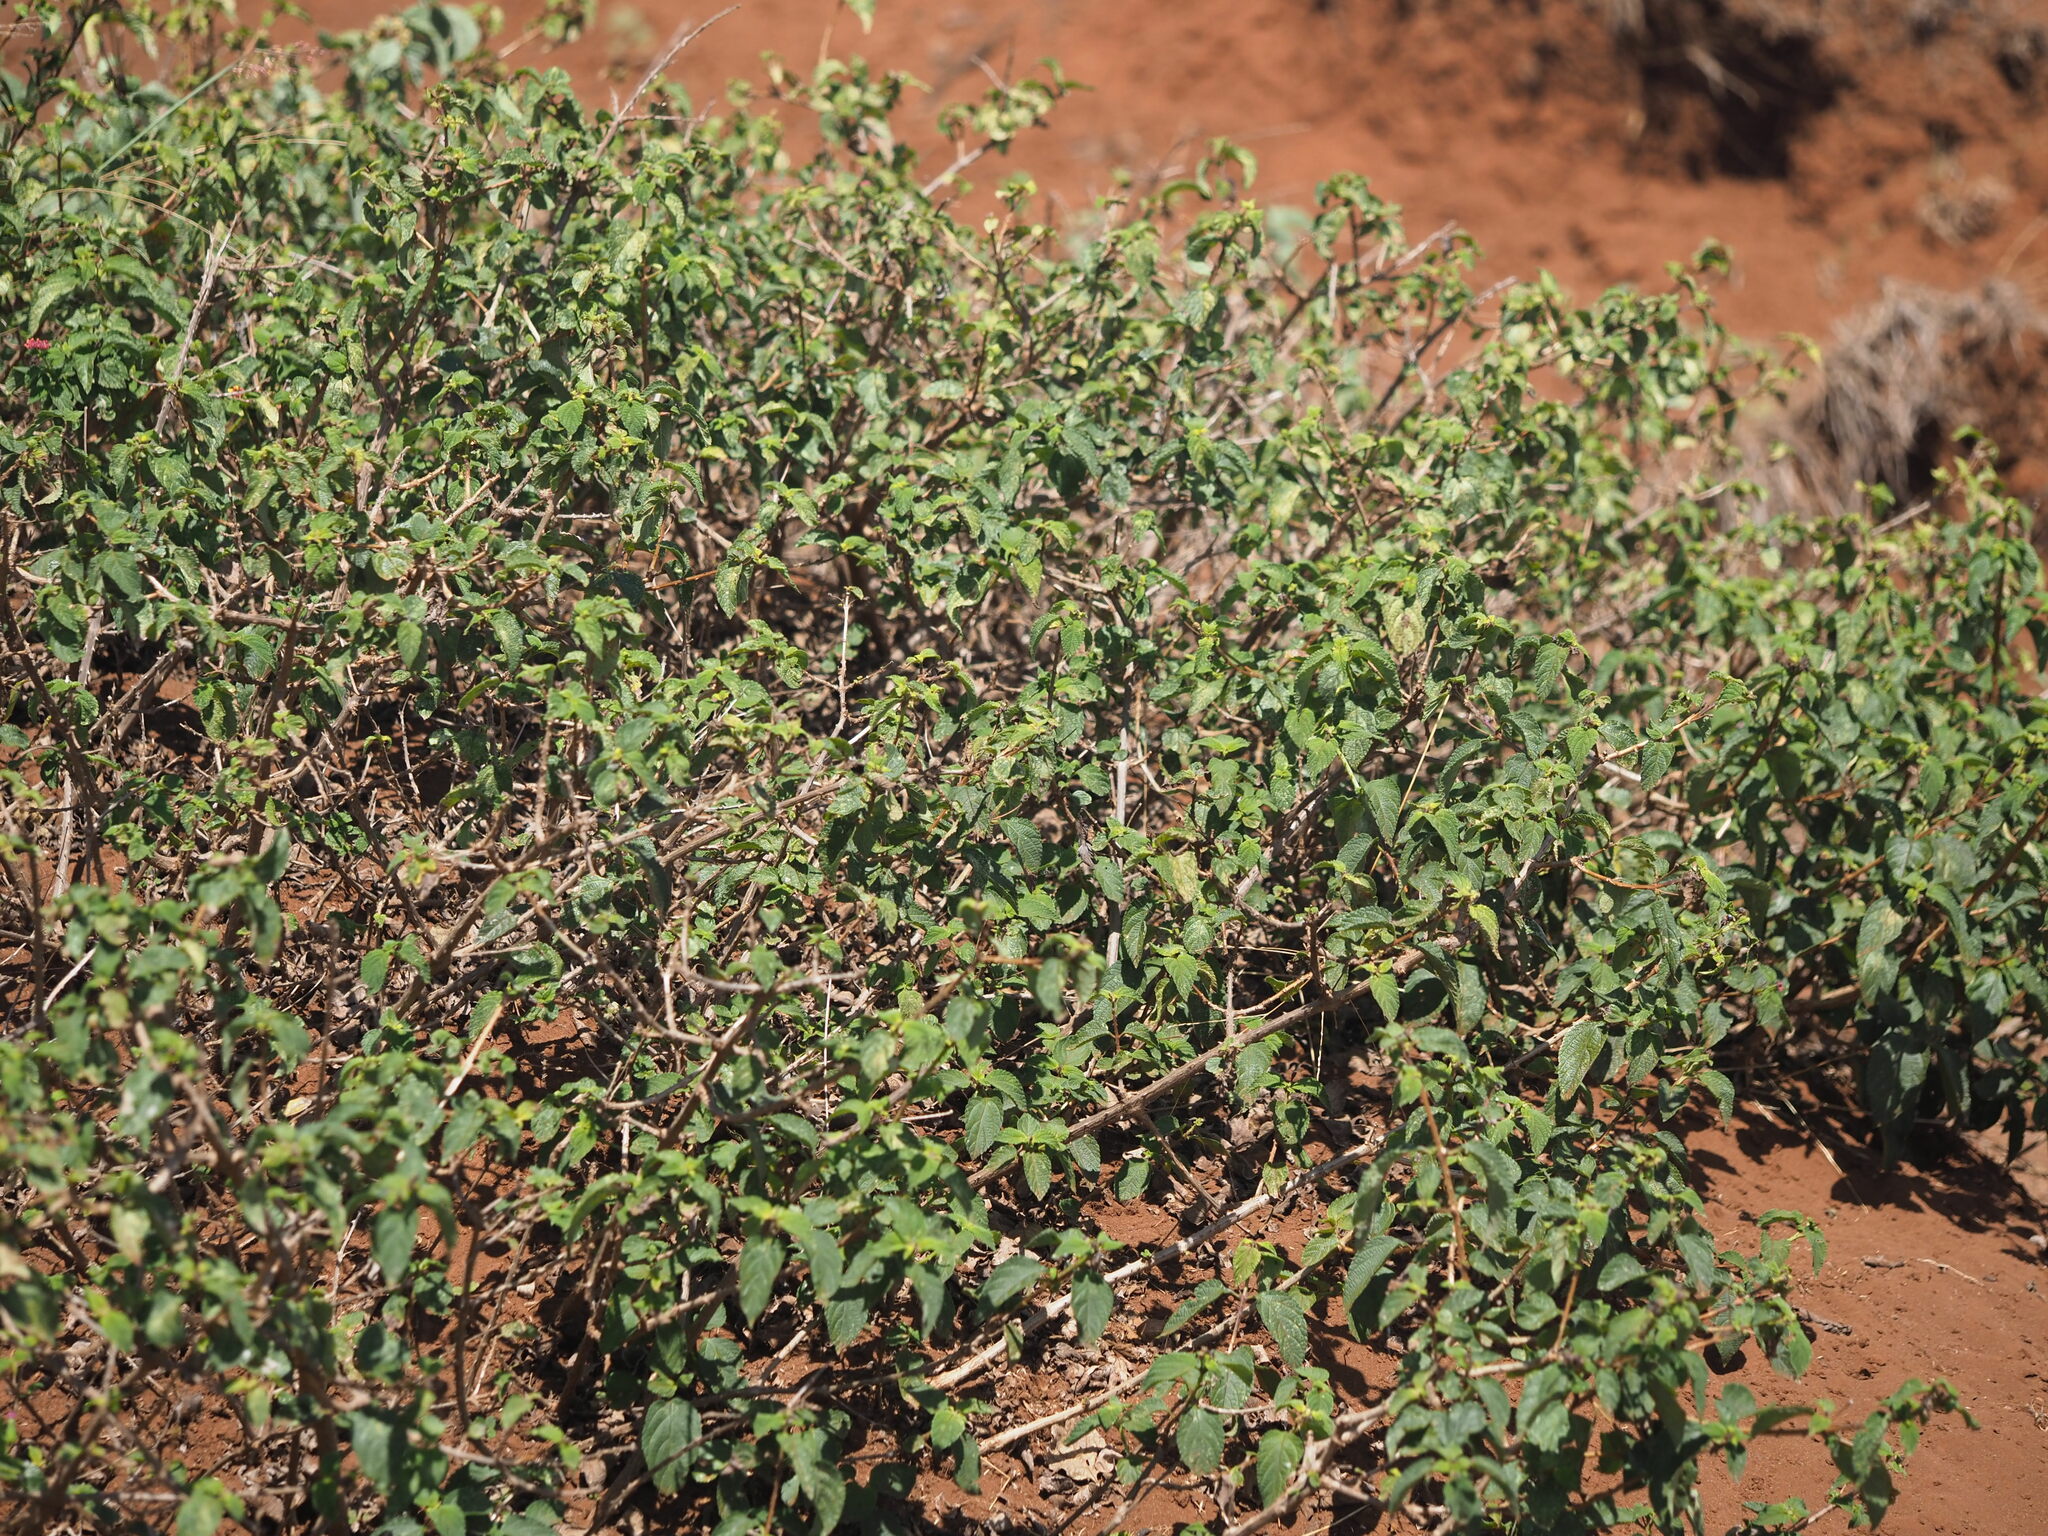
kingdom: Plantae
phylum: Tracheophyta
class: Magnoliopsida
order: Lamiales
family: Verbenaceae
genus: Lantana
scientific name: Lantana camara
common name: Lantana
